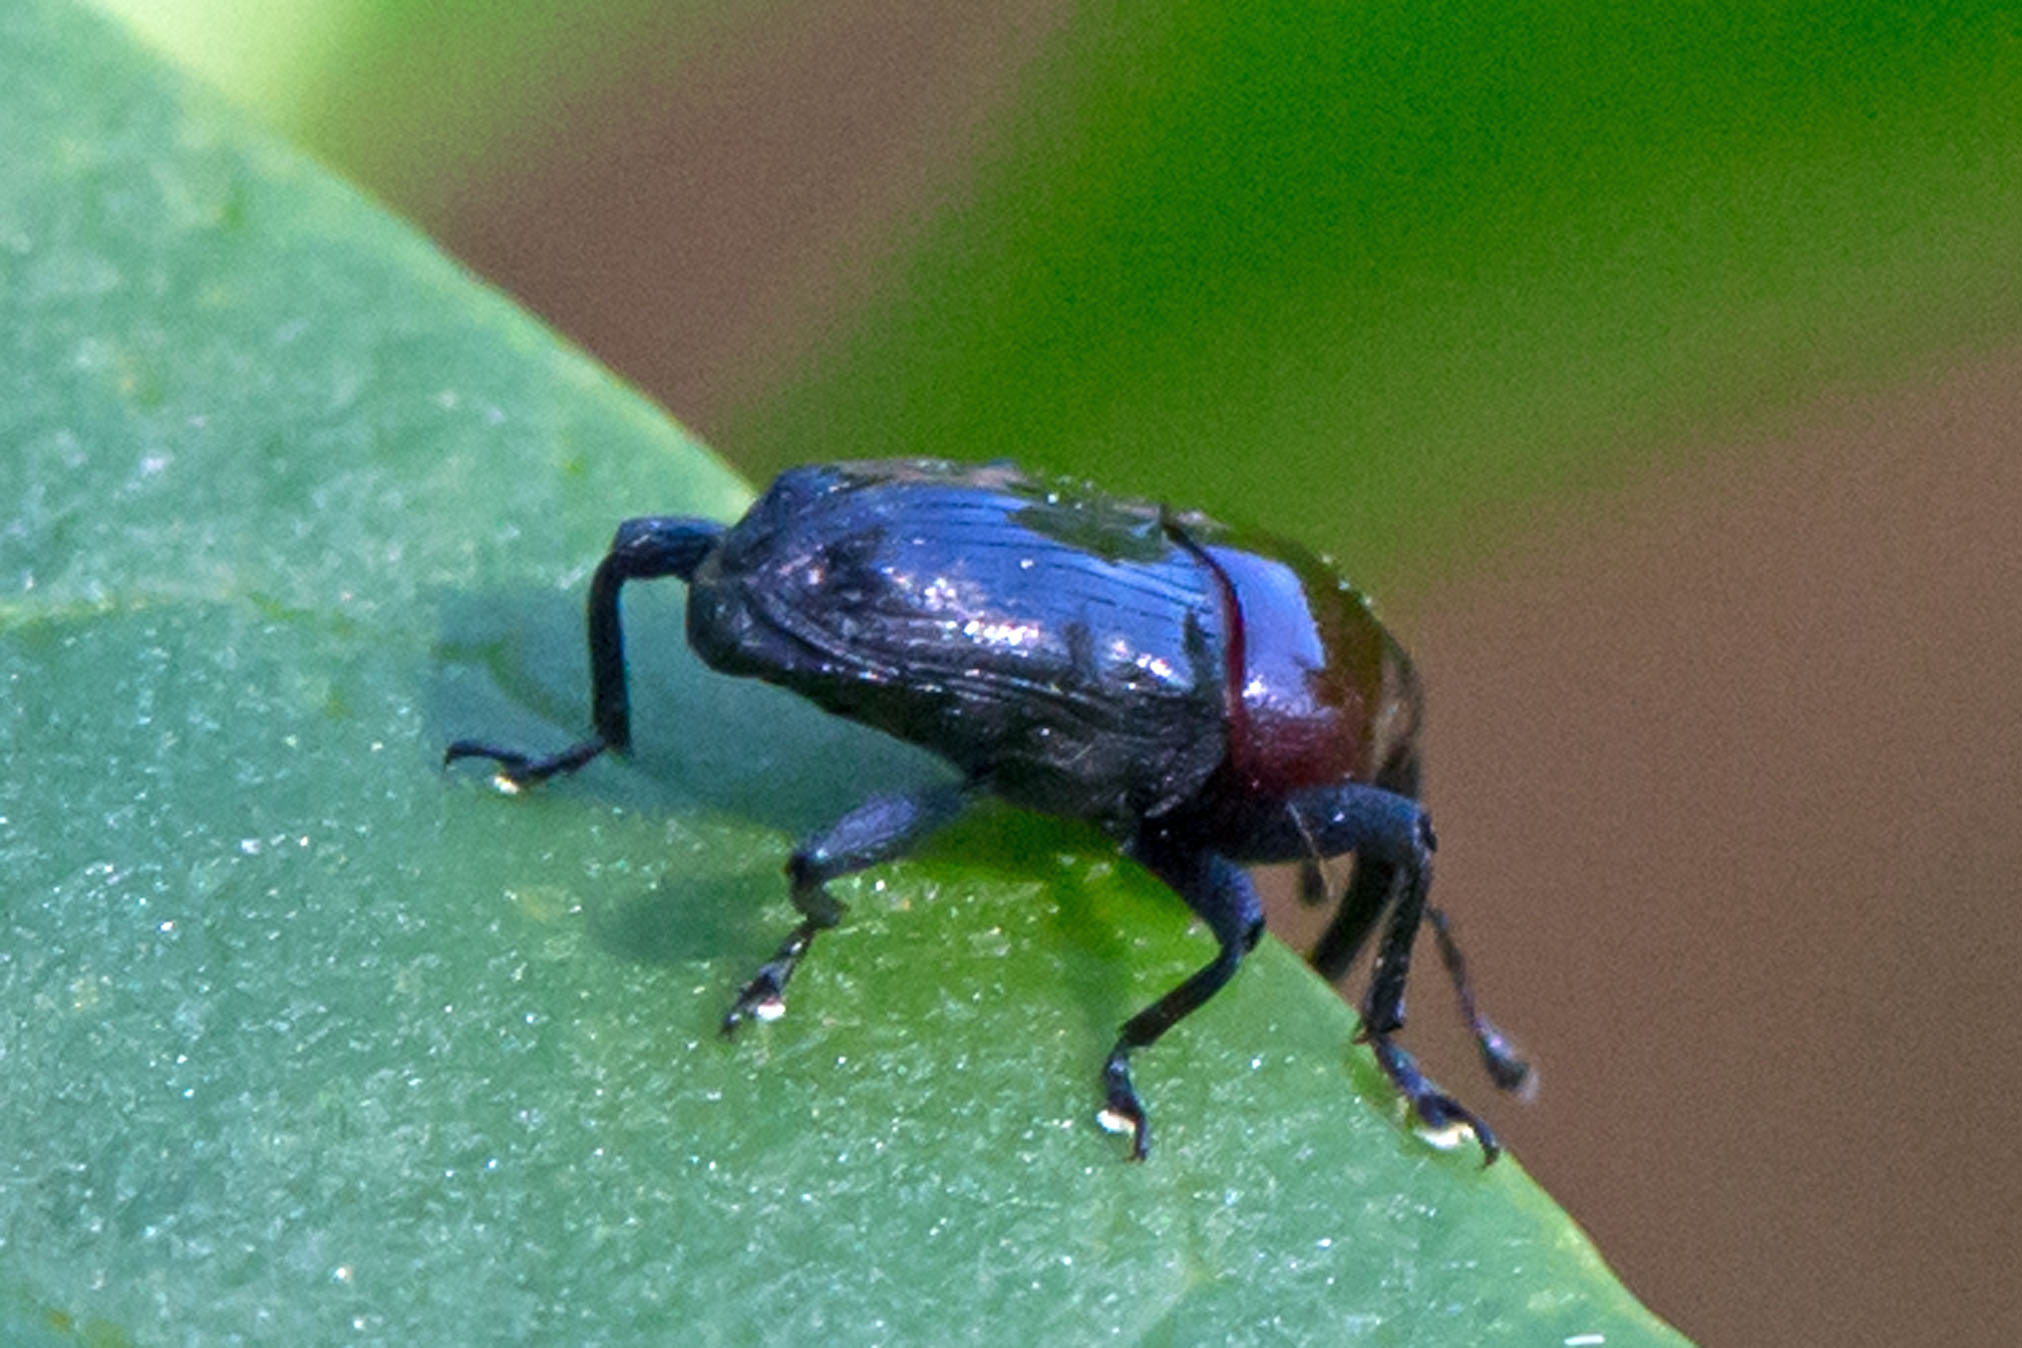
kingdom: Animalia
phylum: Arthropoda
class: Insecta
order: Coleoptera
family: Curculionidae
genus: Madarellus
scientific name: Madarellus undulatus
